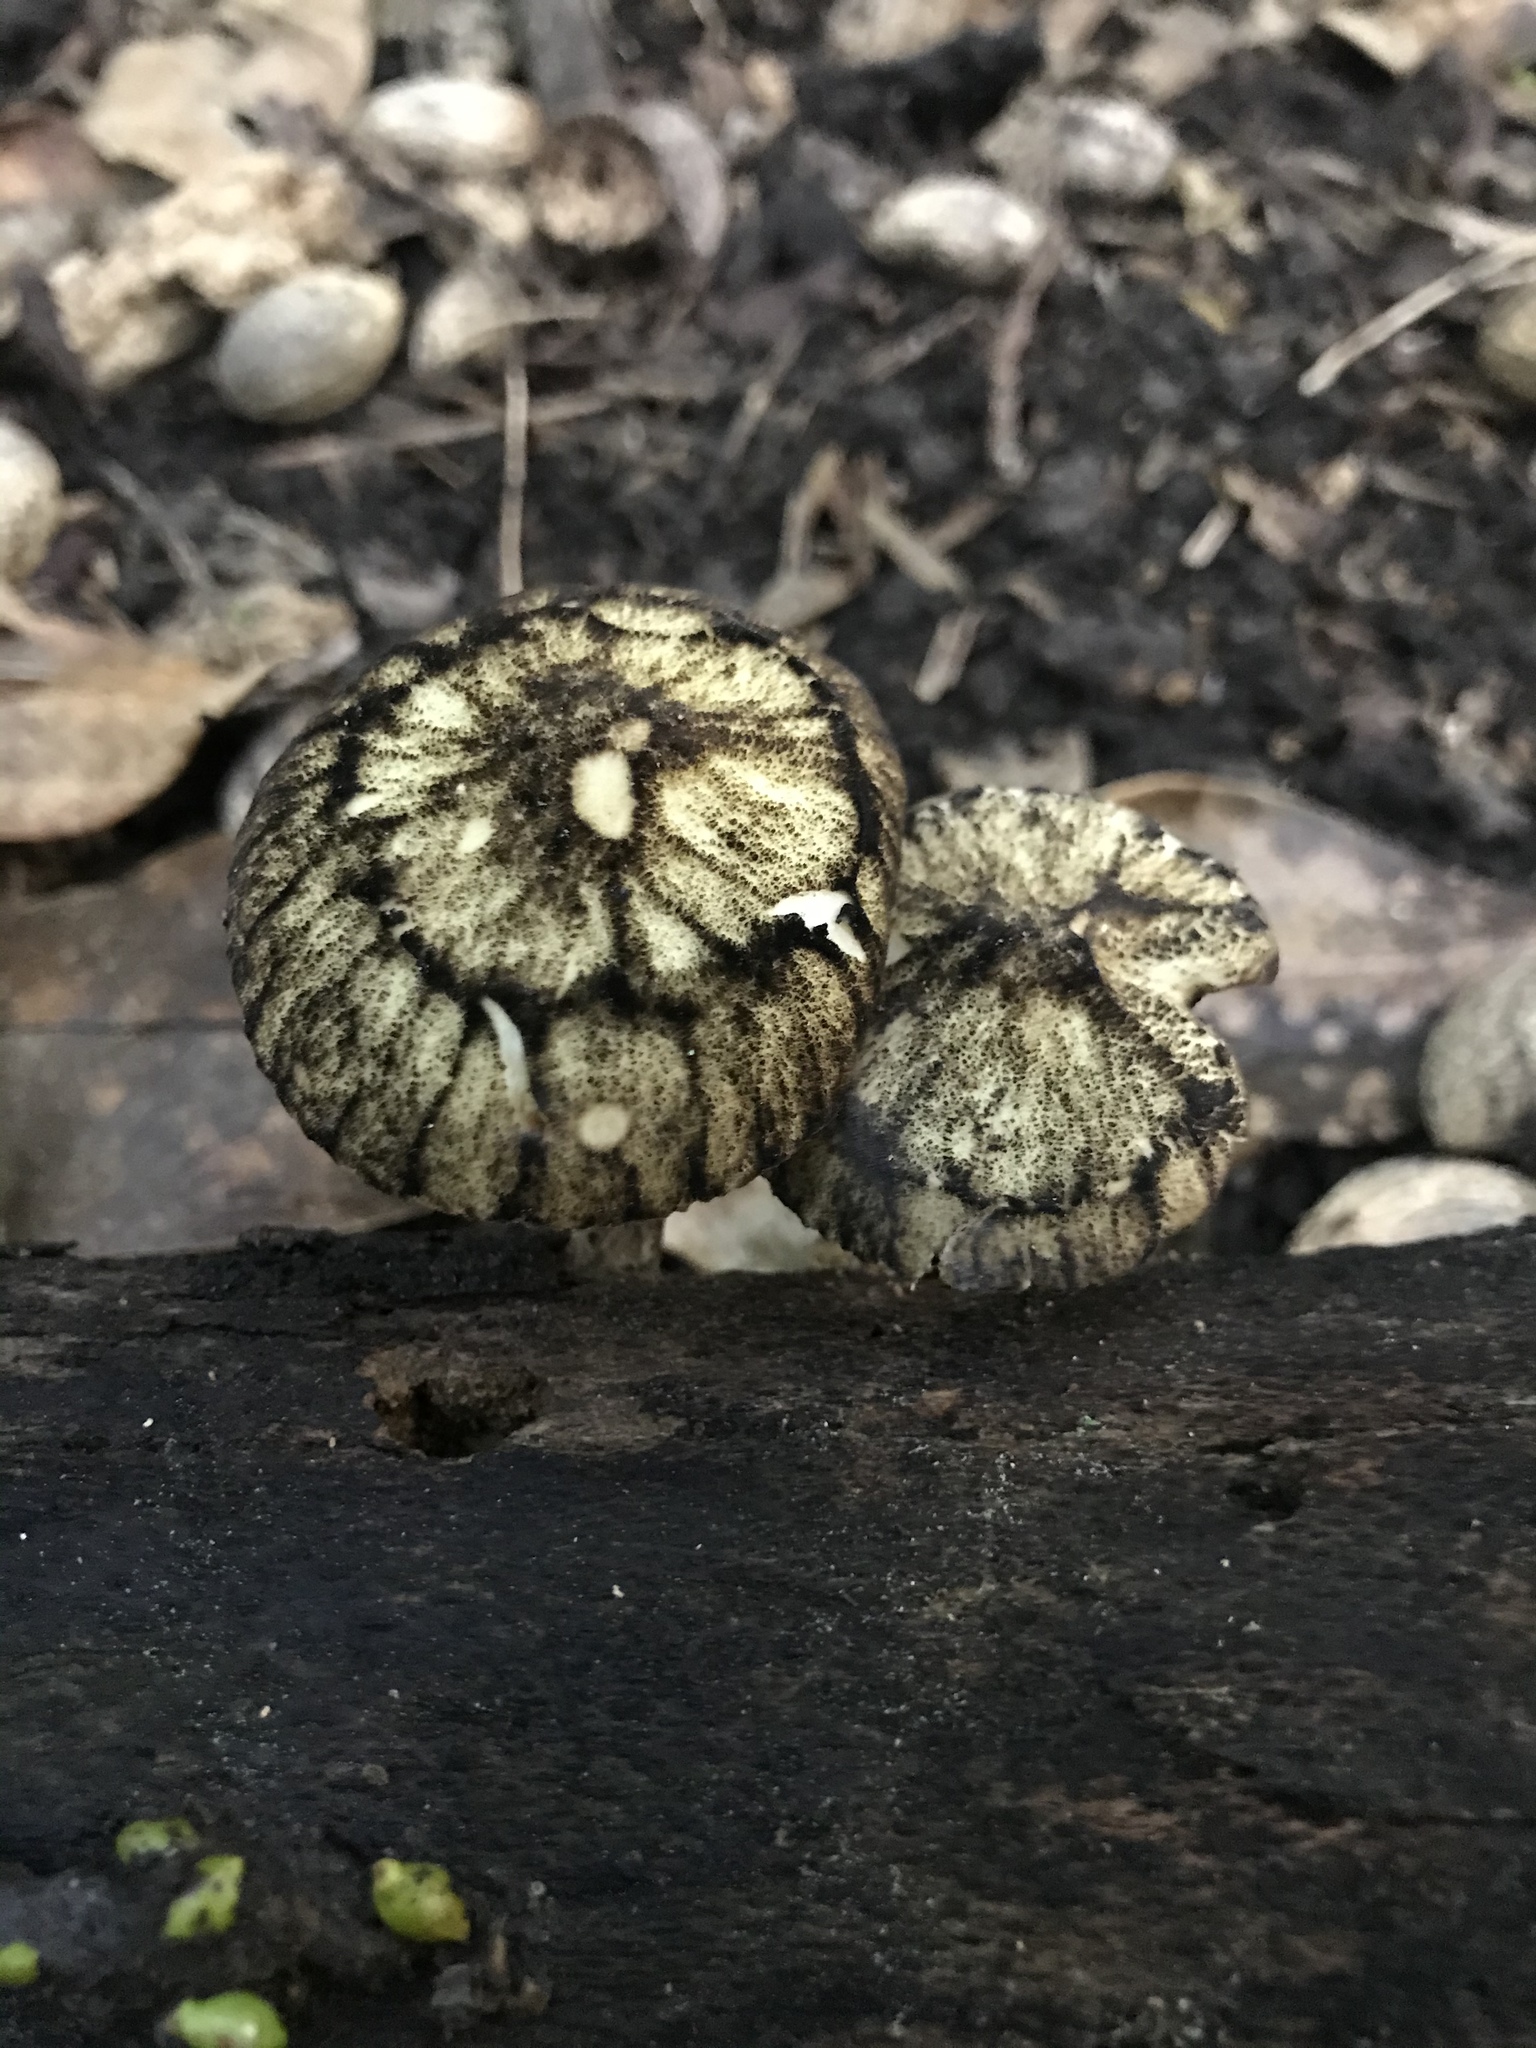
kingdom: Fungi
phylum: Basidiomycota
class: Agaricomycetes
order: Agaricales
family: Pluteaceae
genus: Pluteus
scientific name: Pluteus readiarum
